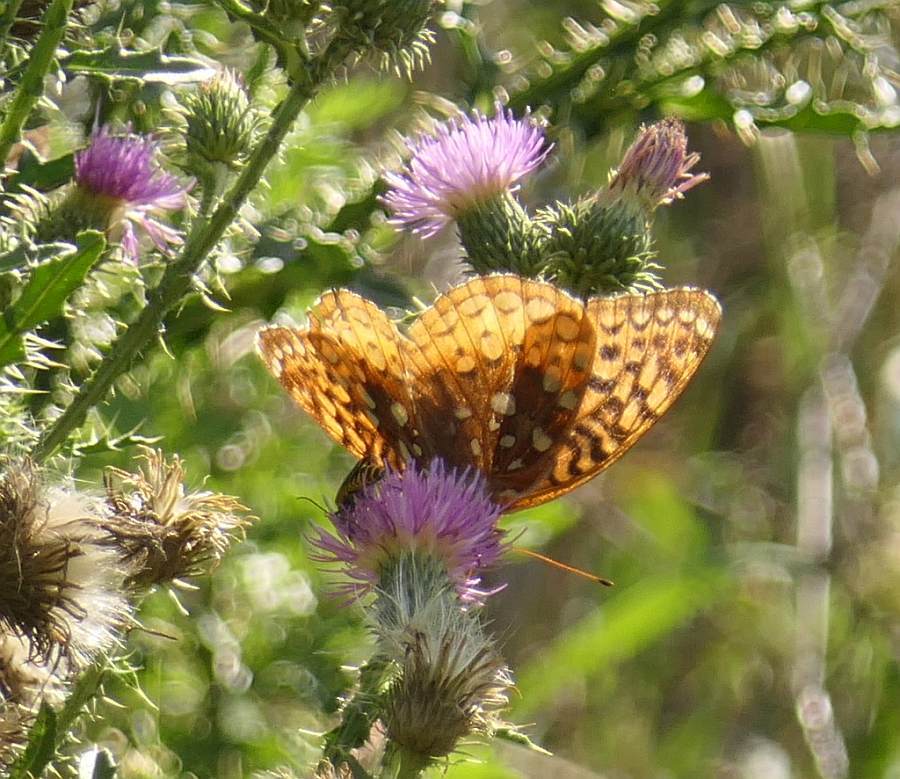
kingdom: Animalia
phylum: Arthropoda
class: Insecta
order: Lepidoptera
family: Nymphalidae
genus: Speyeria
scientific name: Speyeria cybele
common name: Great spangled fritillary
